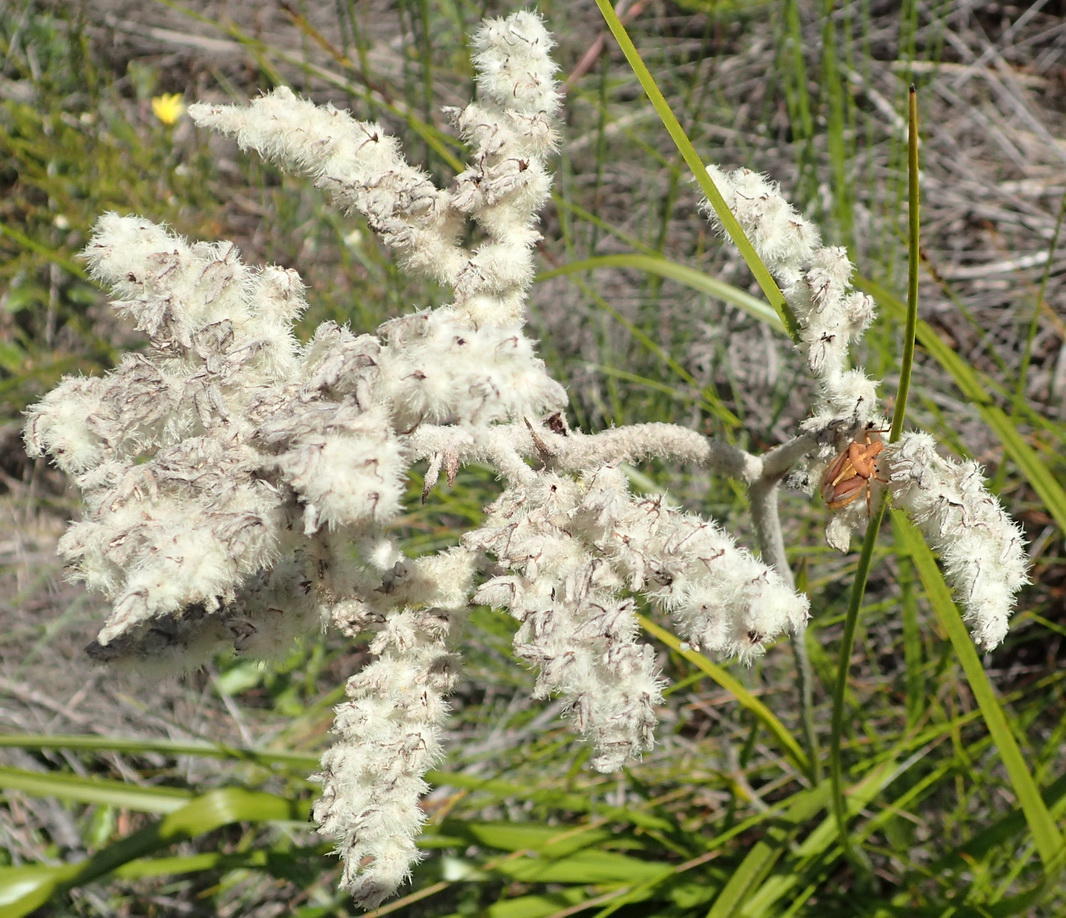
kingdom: Plantae
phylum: Tracheophyta
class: Liliopsida
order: Asparagales
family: Lanariaceae
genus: Lanaria
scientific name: Lanaria lanata
